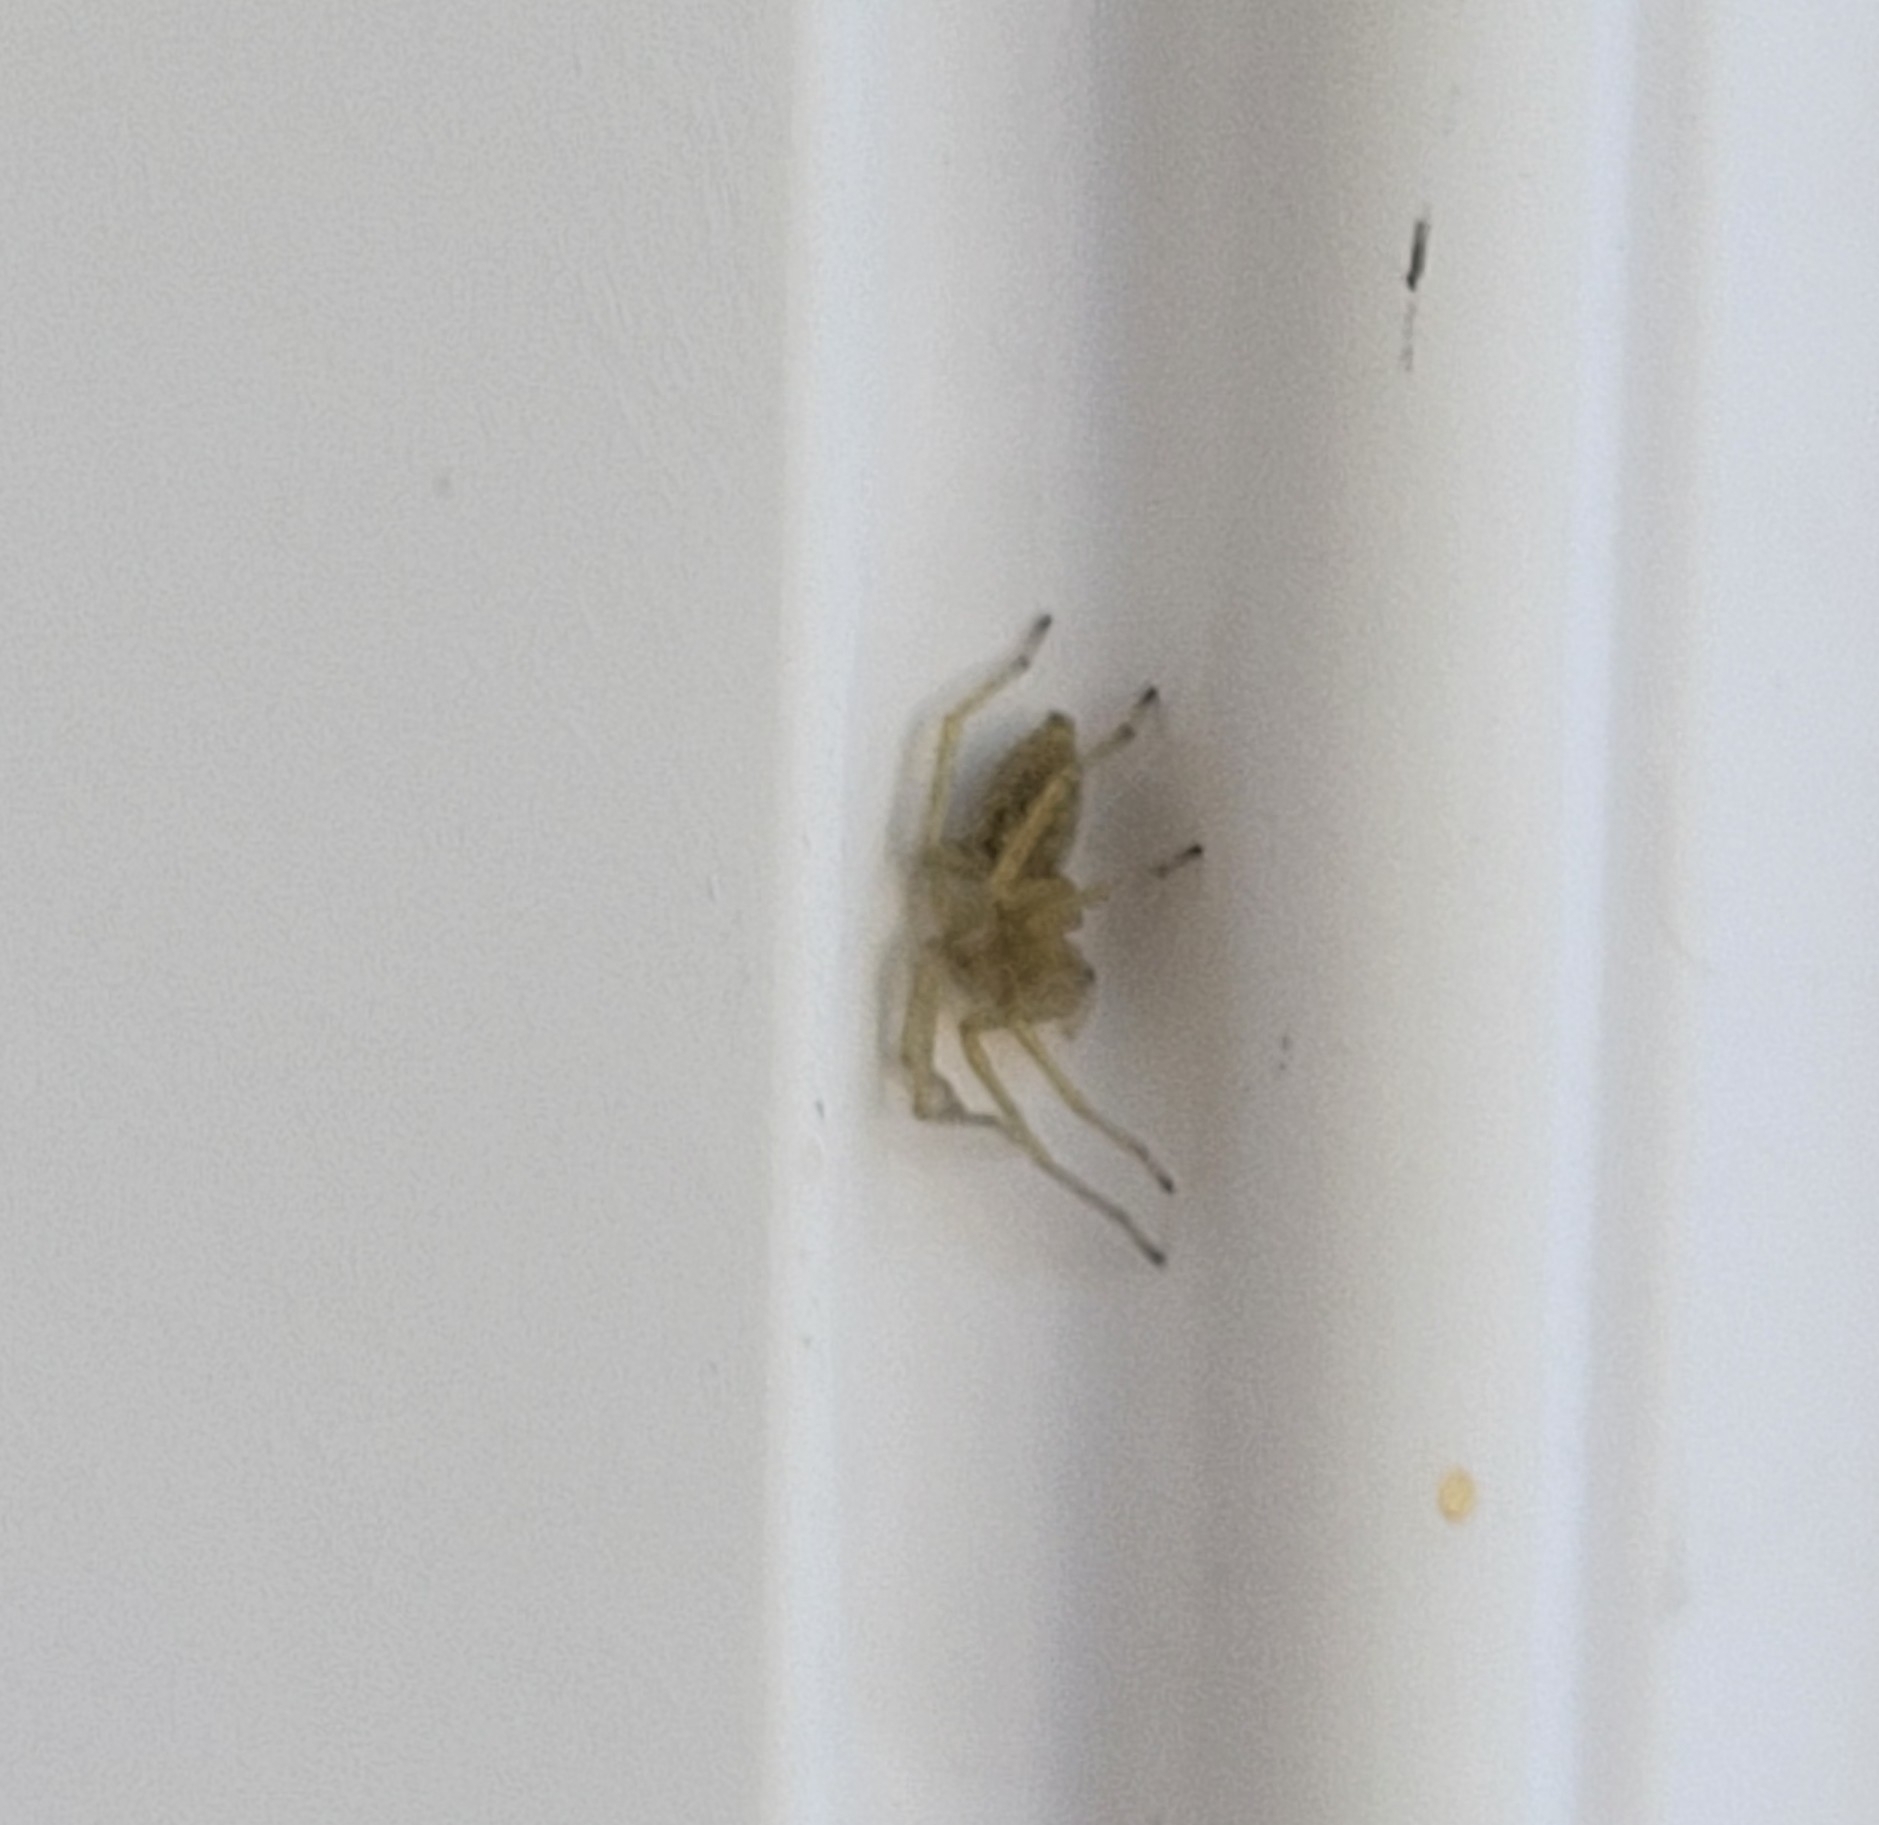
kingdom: Animalia
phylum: Arthropoda
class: Arachnida
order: Araneae
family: Cheiracanthiidae
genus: Cheiracanthium
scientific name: Cheiracanthium mildei
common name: Northern yellow sac spider
